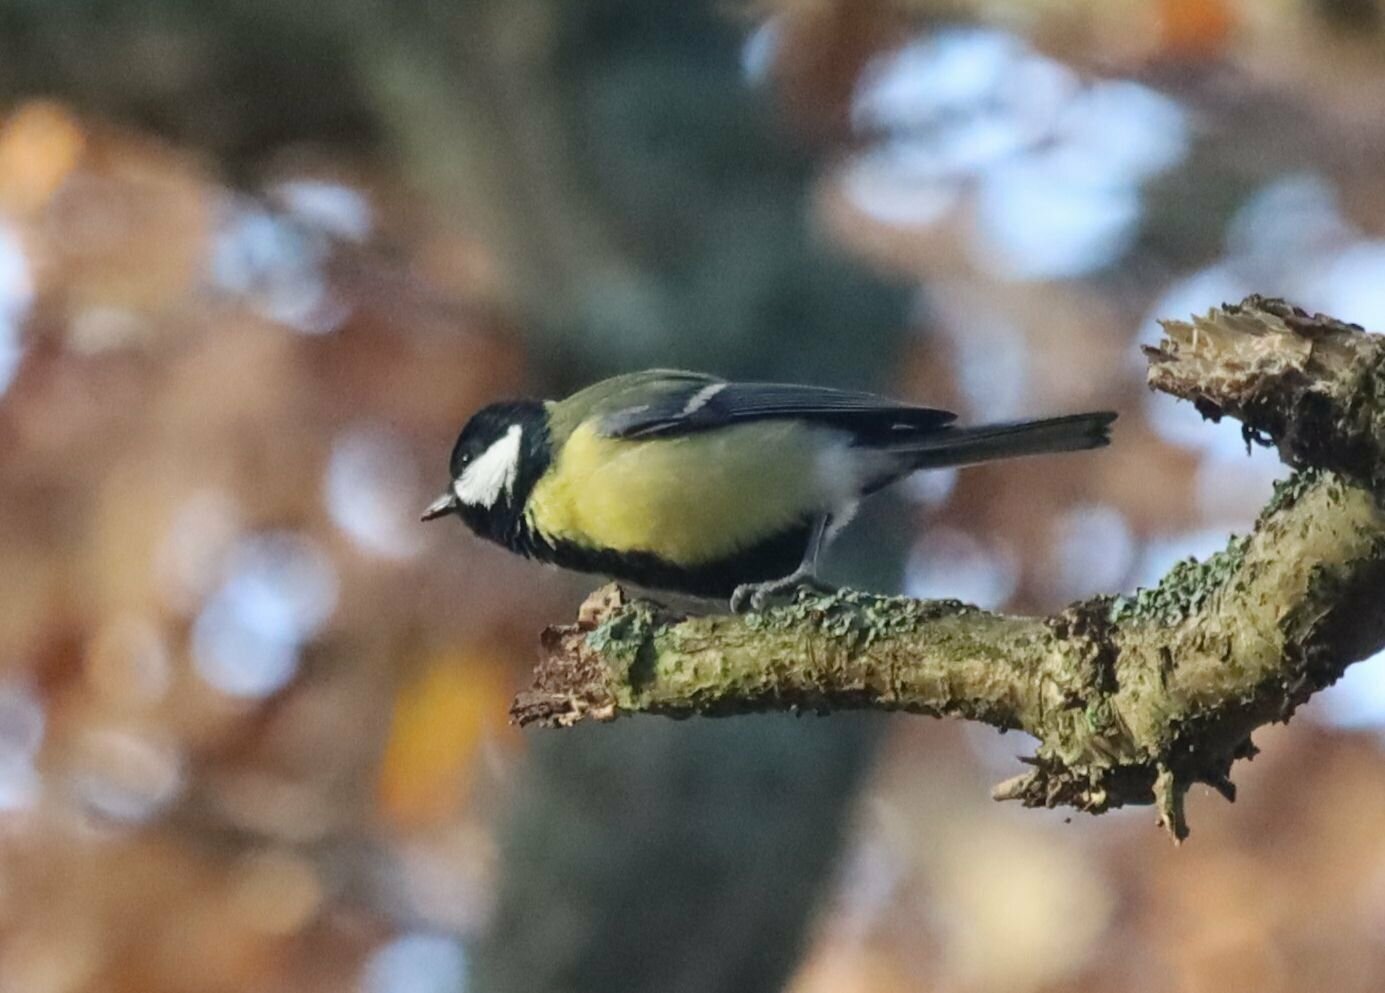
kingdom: Animalia
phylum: Chordata
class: Aves
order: Passeriformes
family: Paridae
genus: Parus
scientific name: Parus major
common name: Great tit
